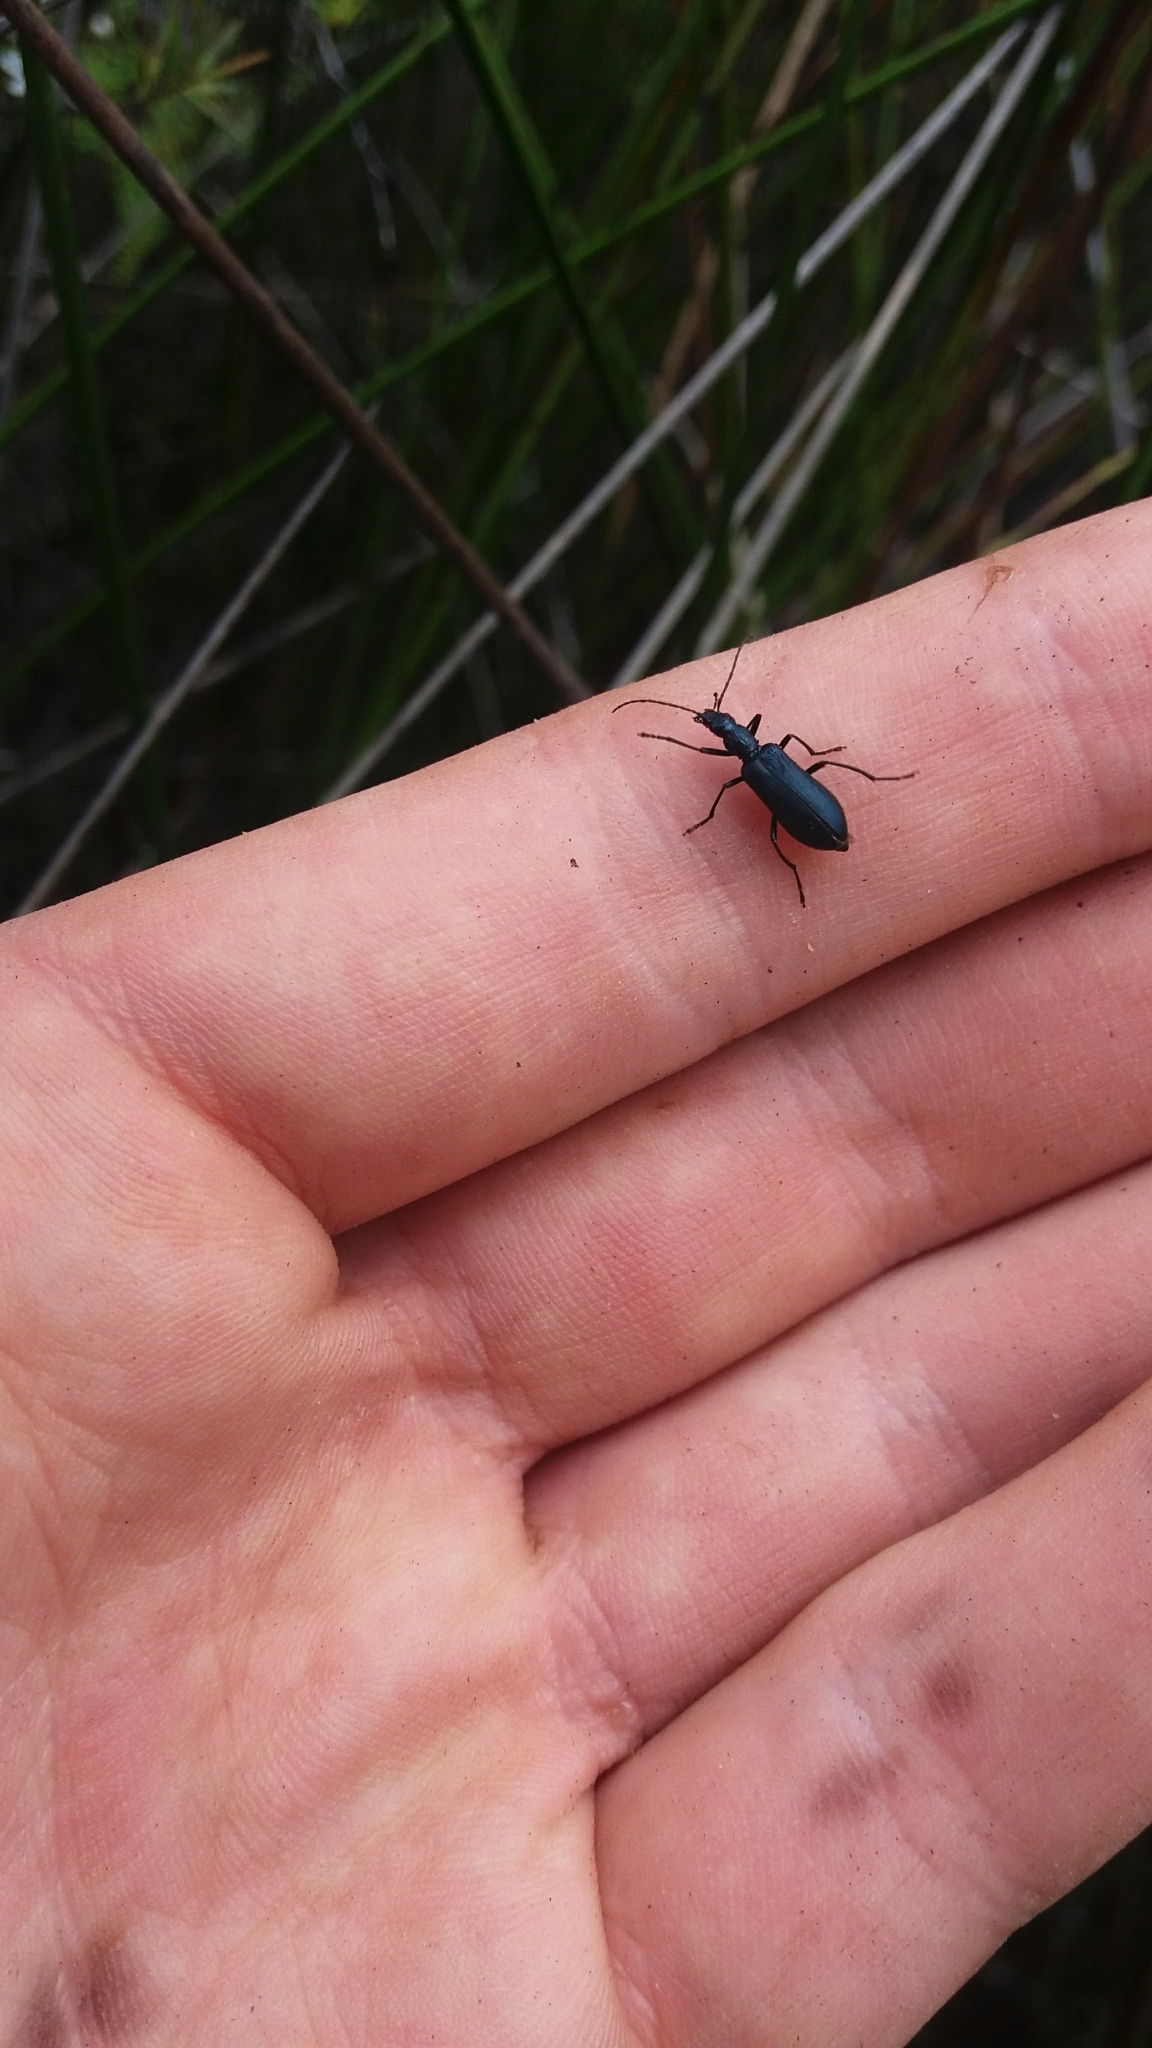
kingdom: Animalia
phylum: Arthropoda
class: Insecta
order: Coleoptera
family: Oedemeridae
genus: Selenopalpus
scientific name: Selenopalpus cyaneus
